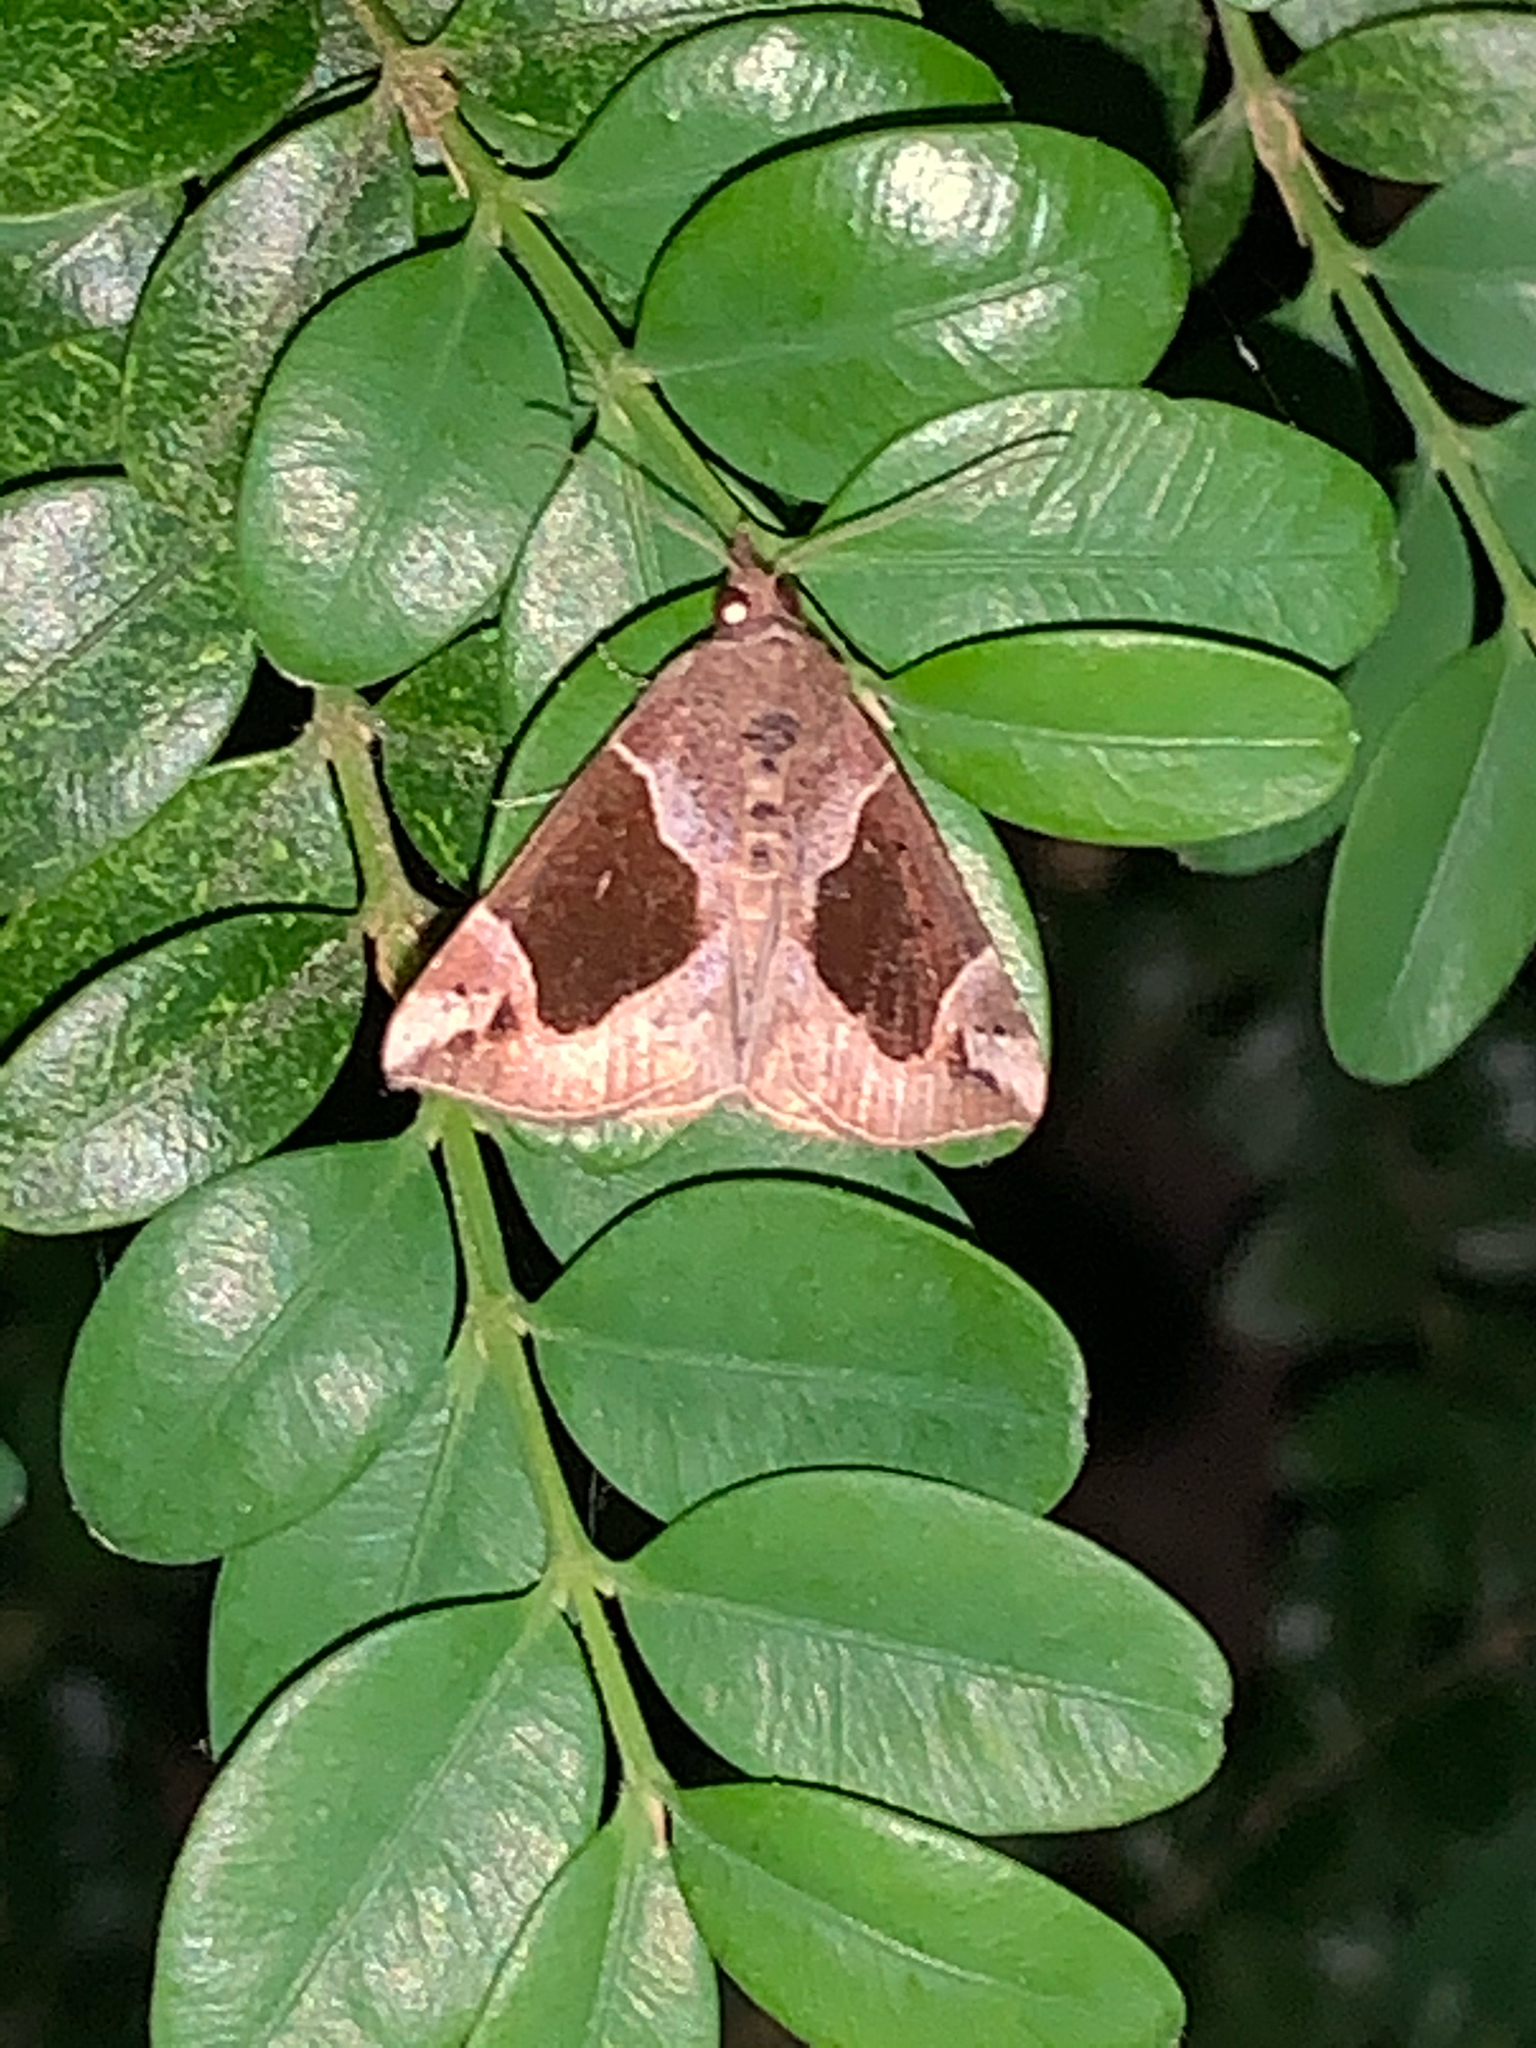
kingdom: Animalia
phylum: Arthropoda
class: Insecta
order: Lepidoptera
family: Erebidae
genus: Hypena
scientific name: Hypena manalis
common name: Flowing-line bomolocha moth
